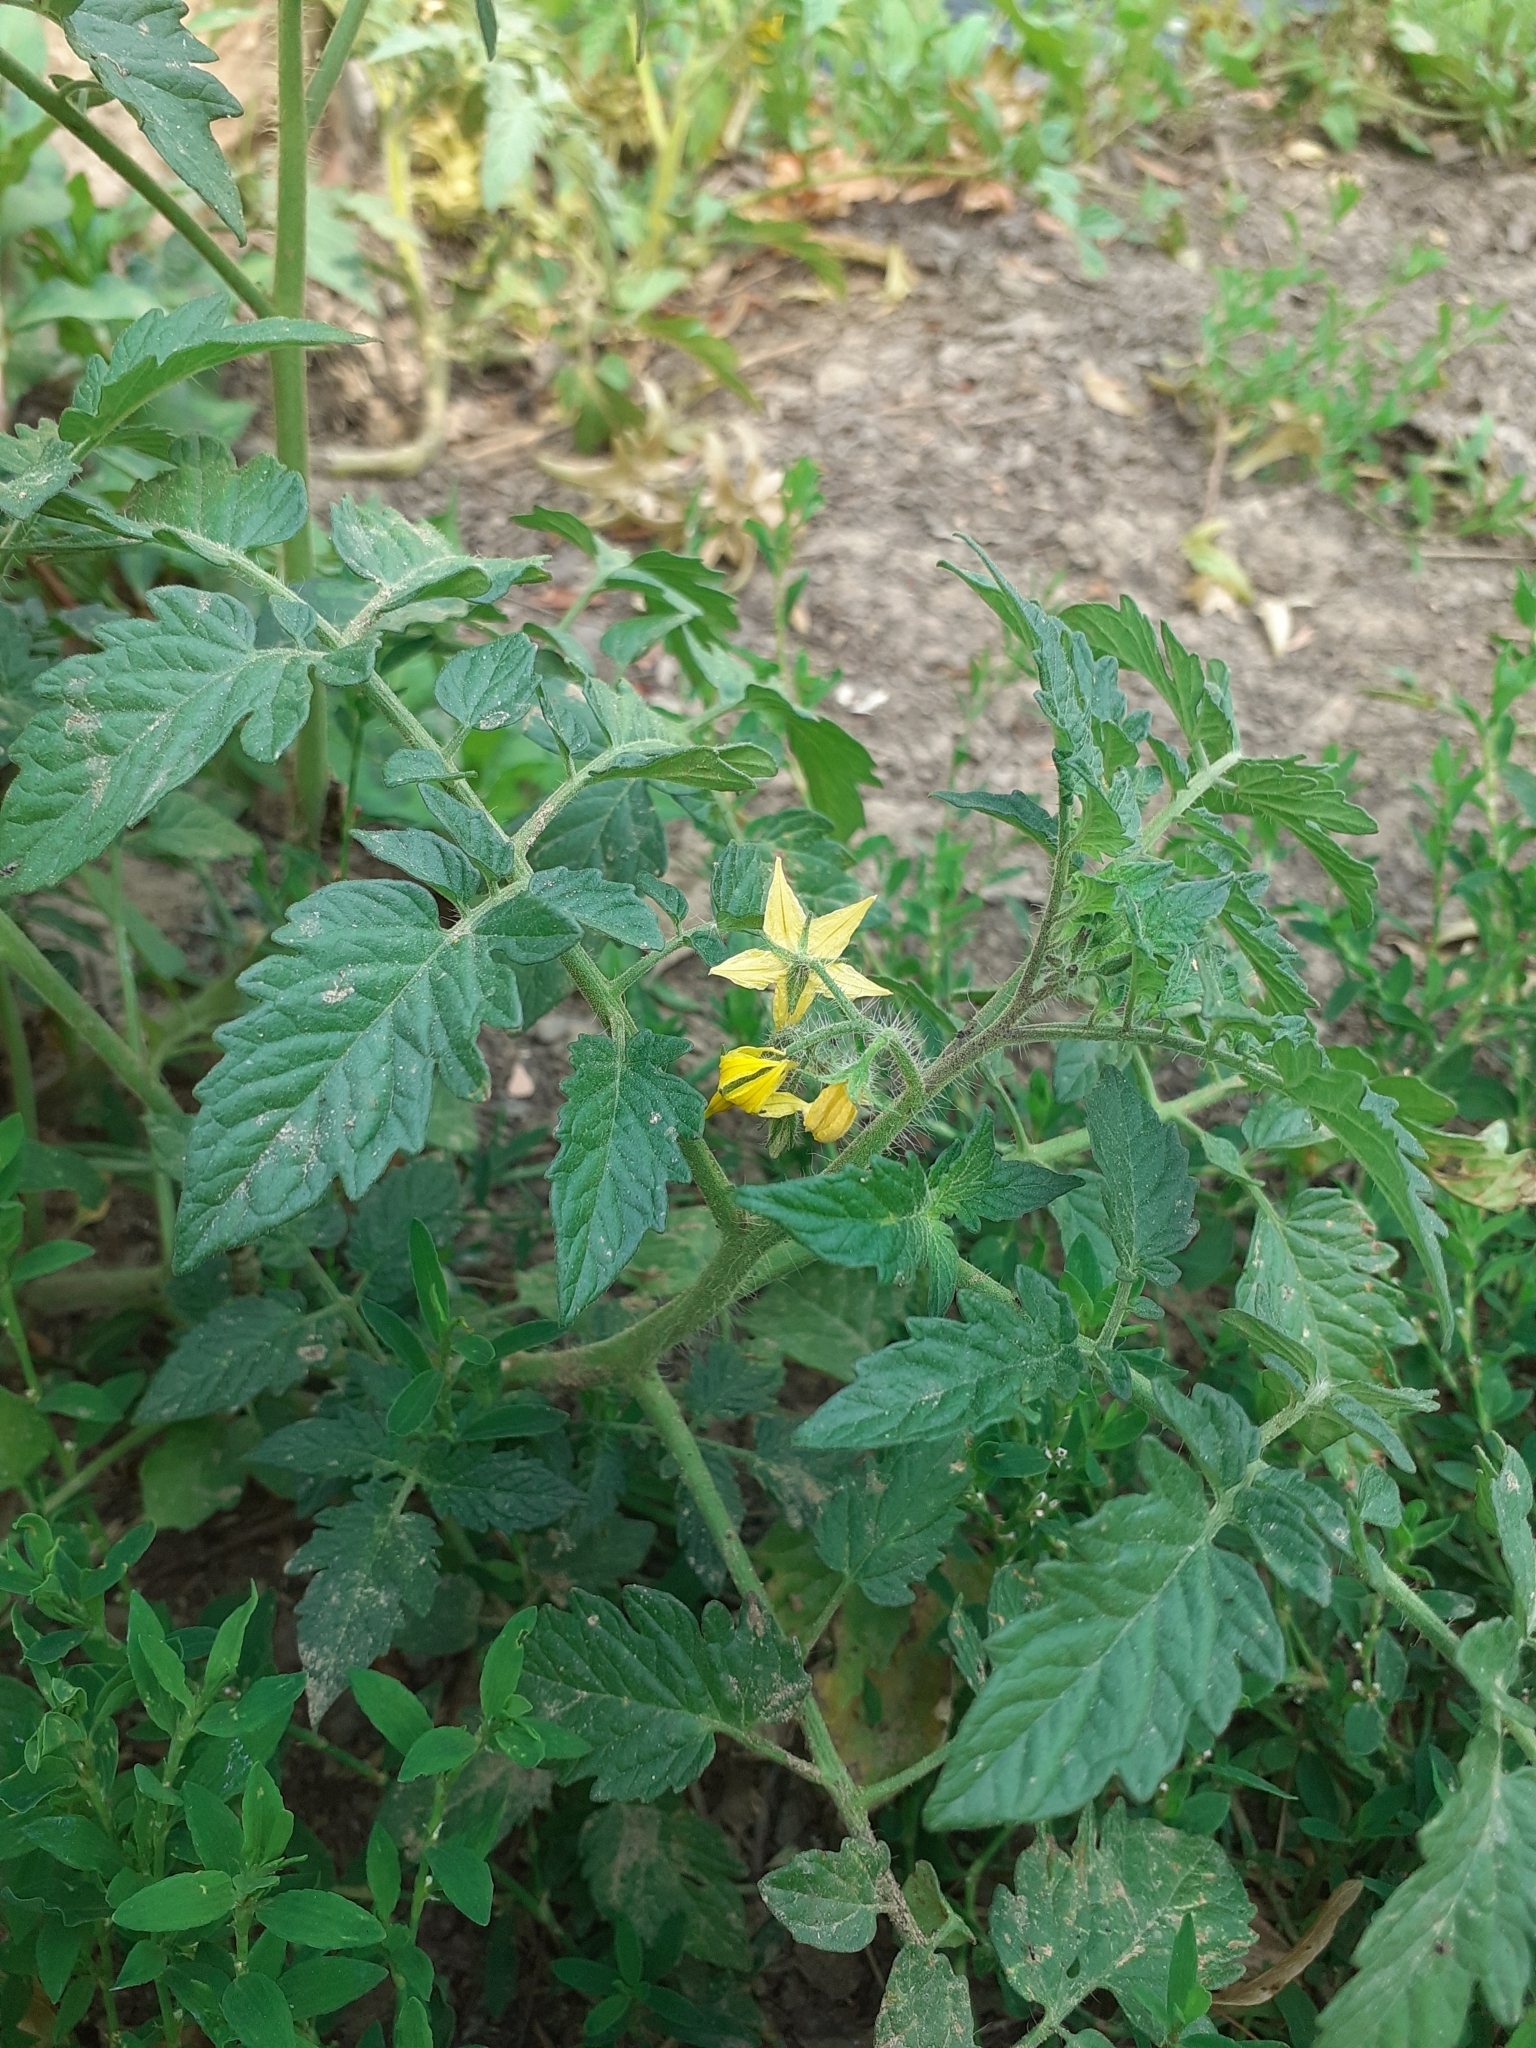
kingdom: Plantae
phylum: Tracheophyta
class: Magnoliopsida
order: Solanales
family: Solanaceae
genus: Solanum
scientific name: Solanum lycopersicum
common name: Garden tomato
